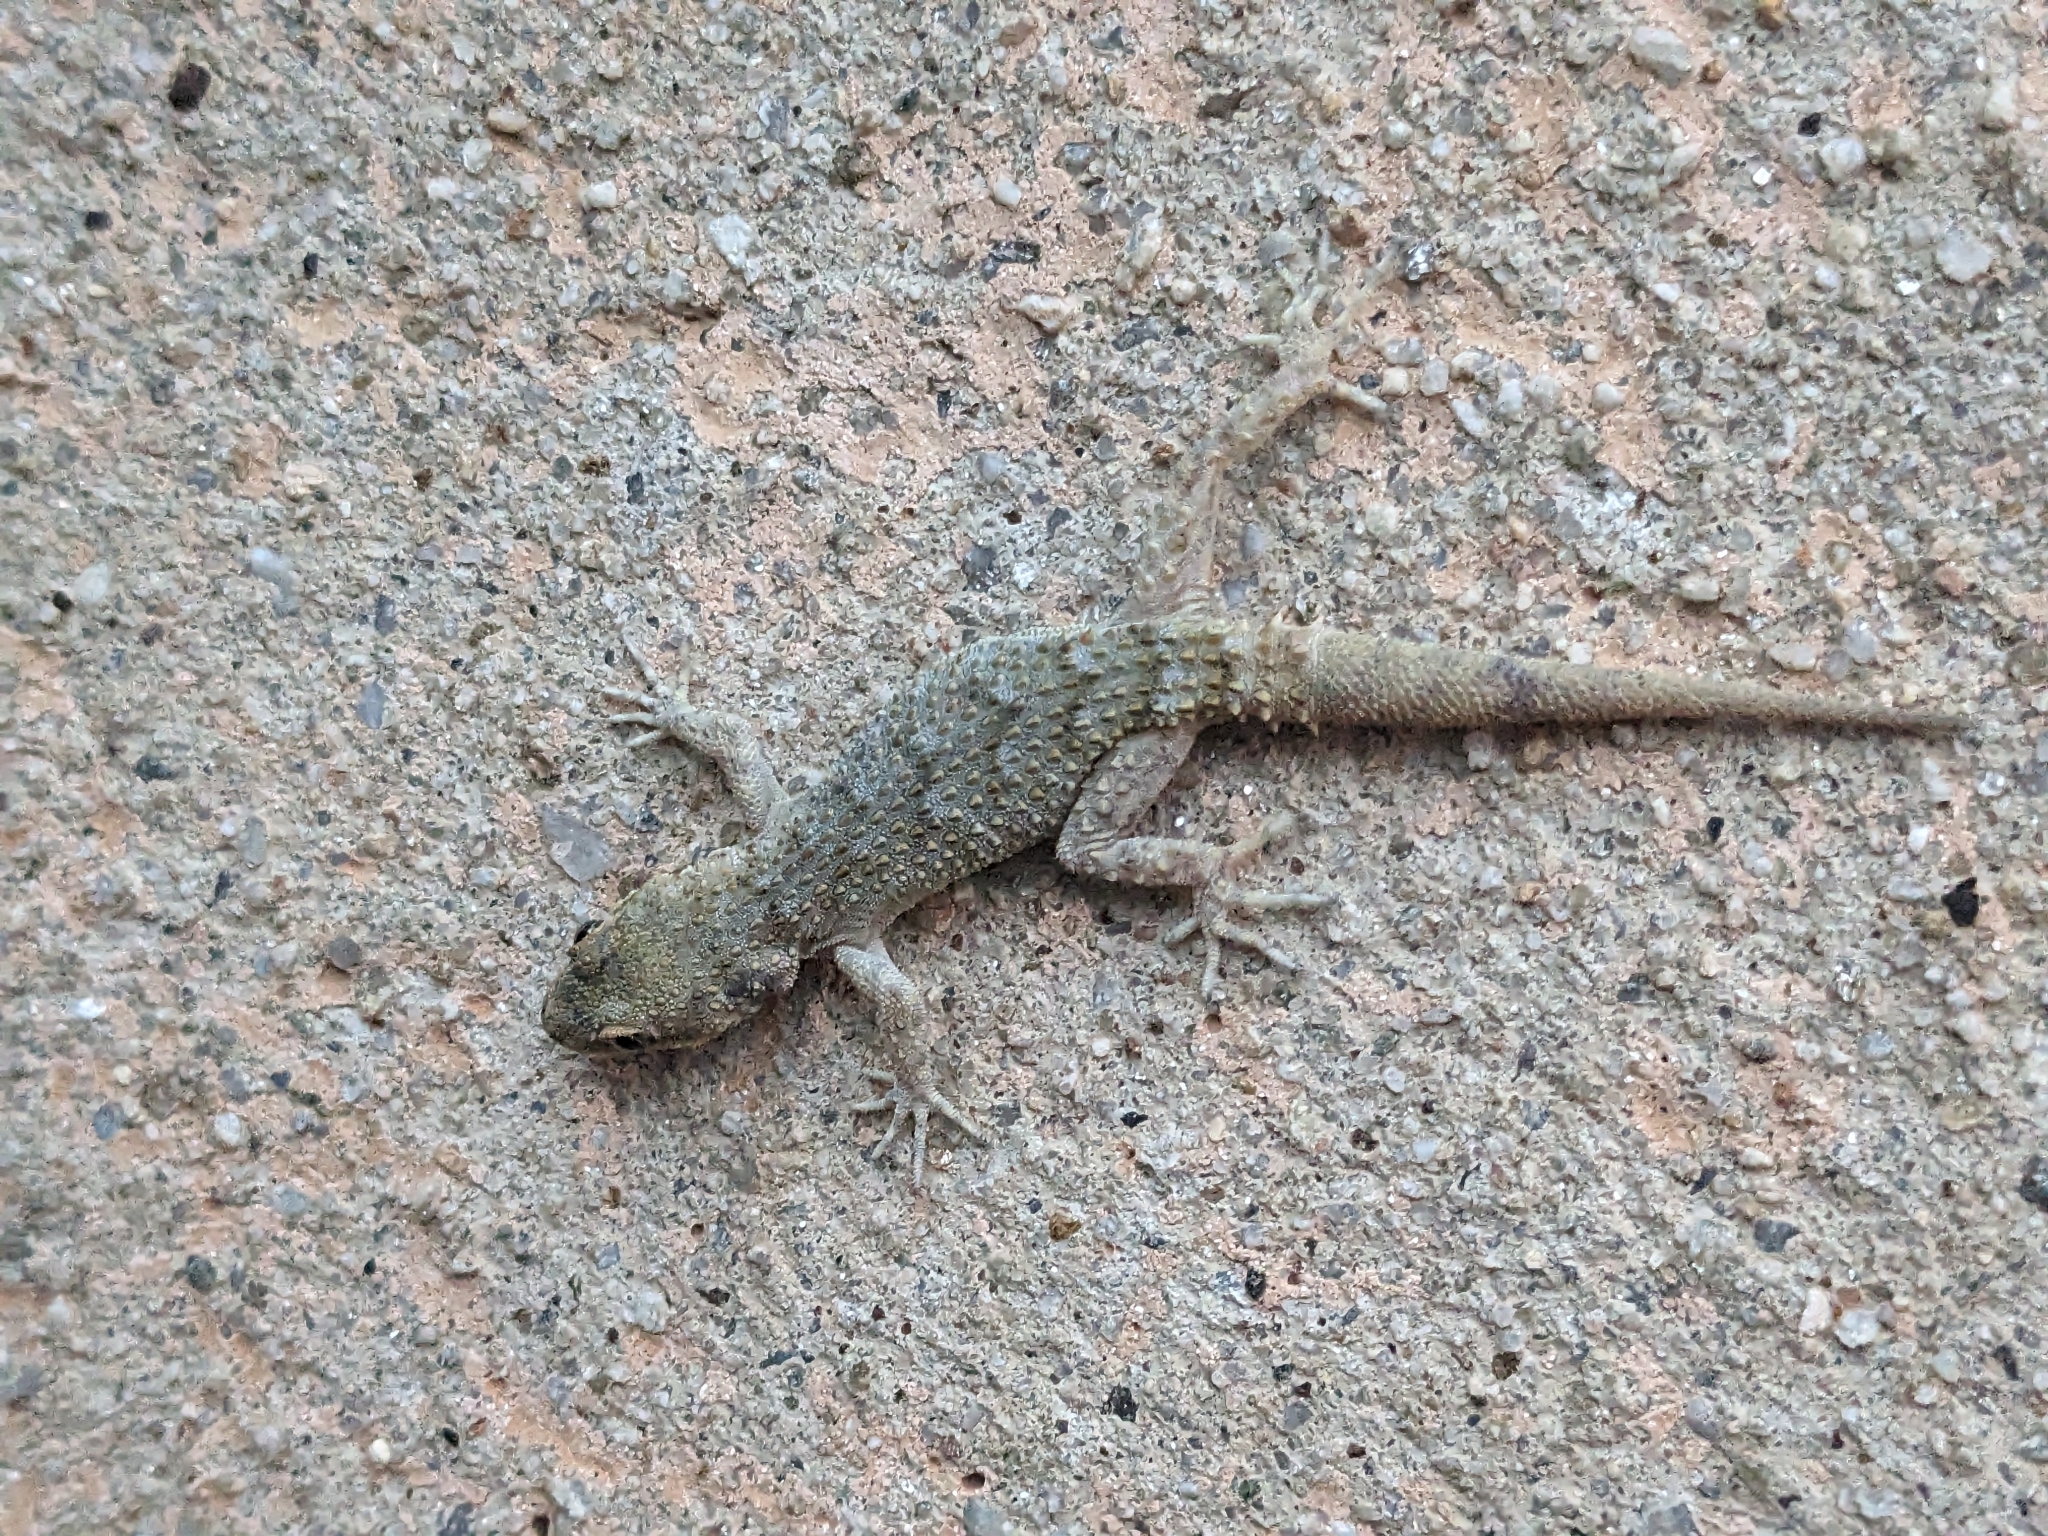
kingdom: Animalia
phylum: Chordata
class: Squamata
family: Gekkonidae
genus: Mediodactylus
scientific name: Mediodactylus kotschyi
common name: Kotschy's gecko
